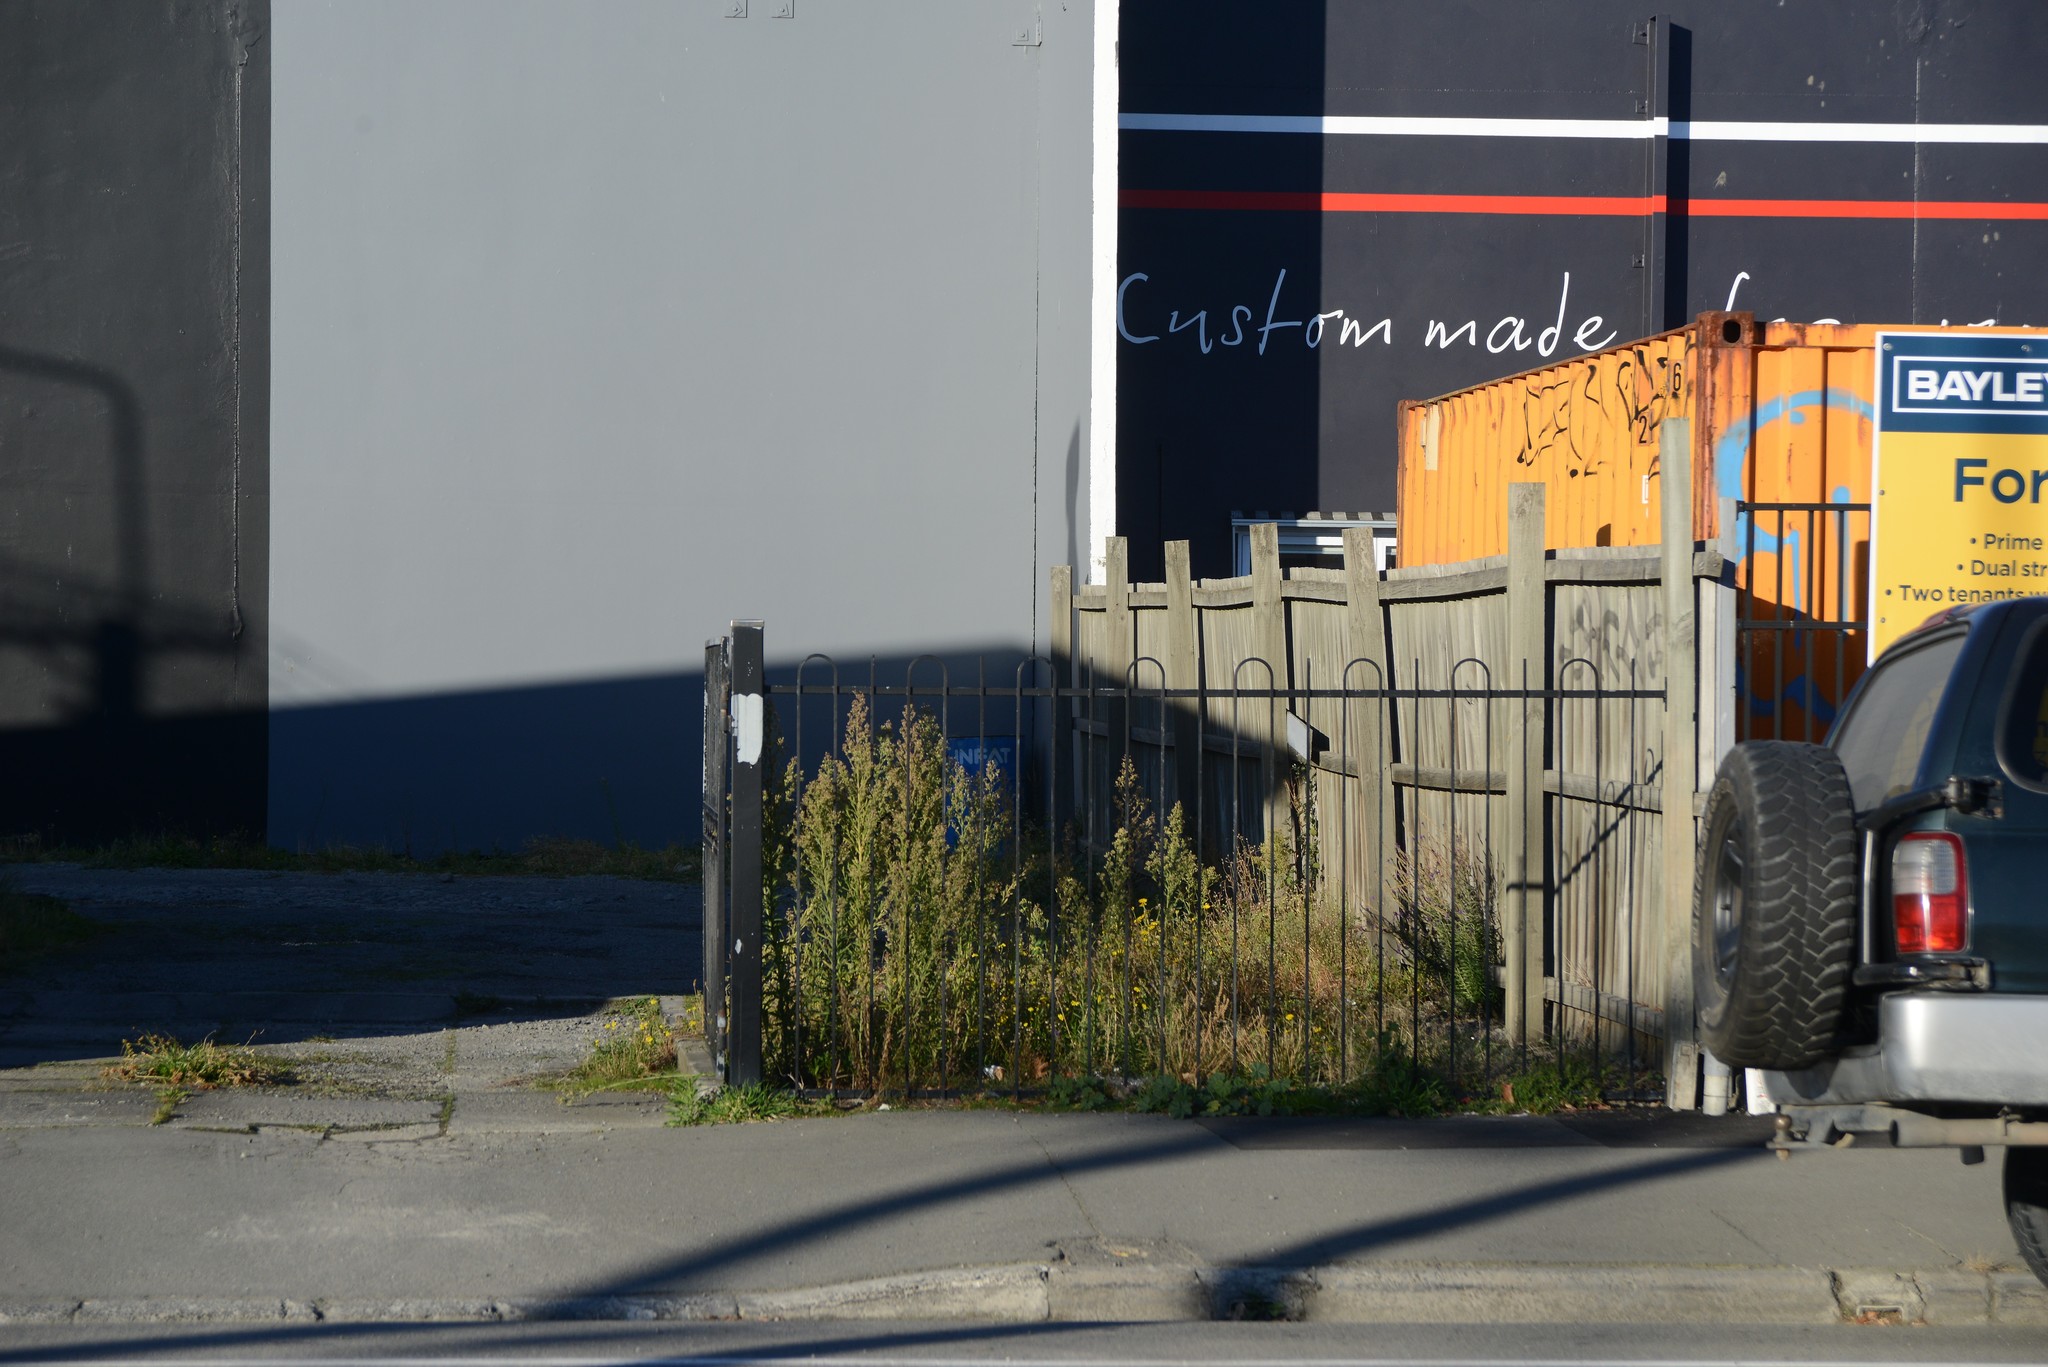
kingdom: Plantae
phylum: Tracheophyta
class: Magnoliopsida
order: Asterales
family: Asteraceae
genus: Senecio
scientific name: Senecio skirrhodon
